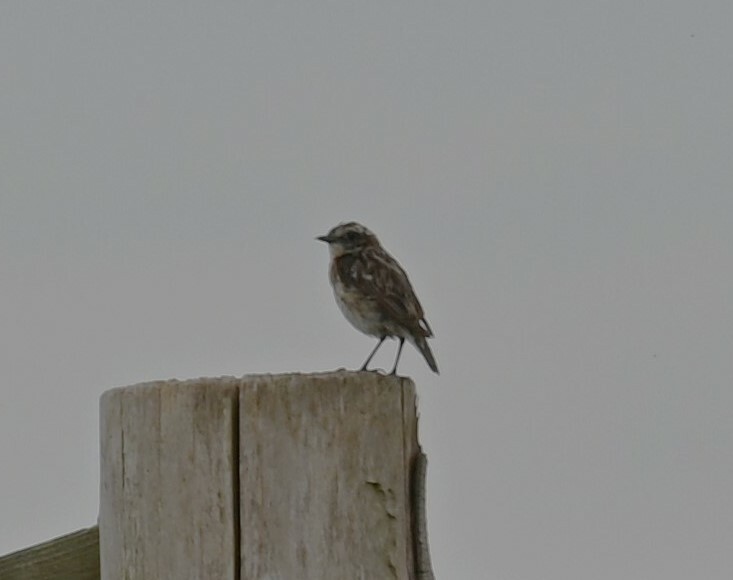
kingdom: Animalia
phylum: Chordata
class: Aves
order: Passeriformes
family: Muscicapidae
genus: Saxicola
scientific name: Saxicola rubetra
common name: Whinchat
